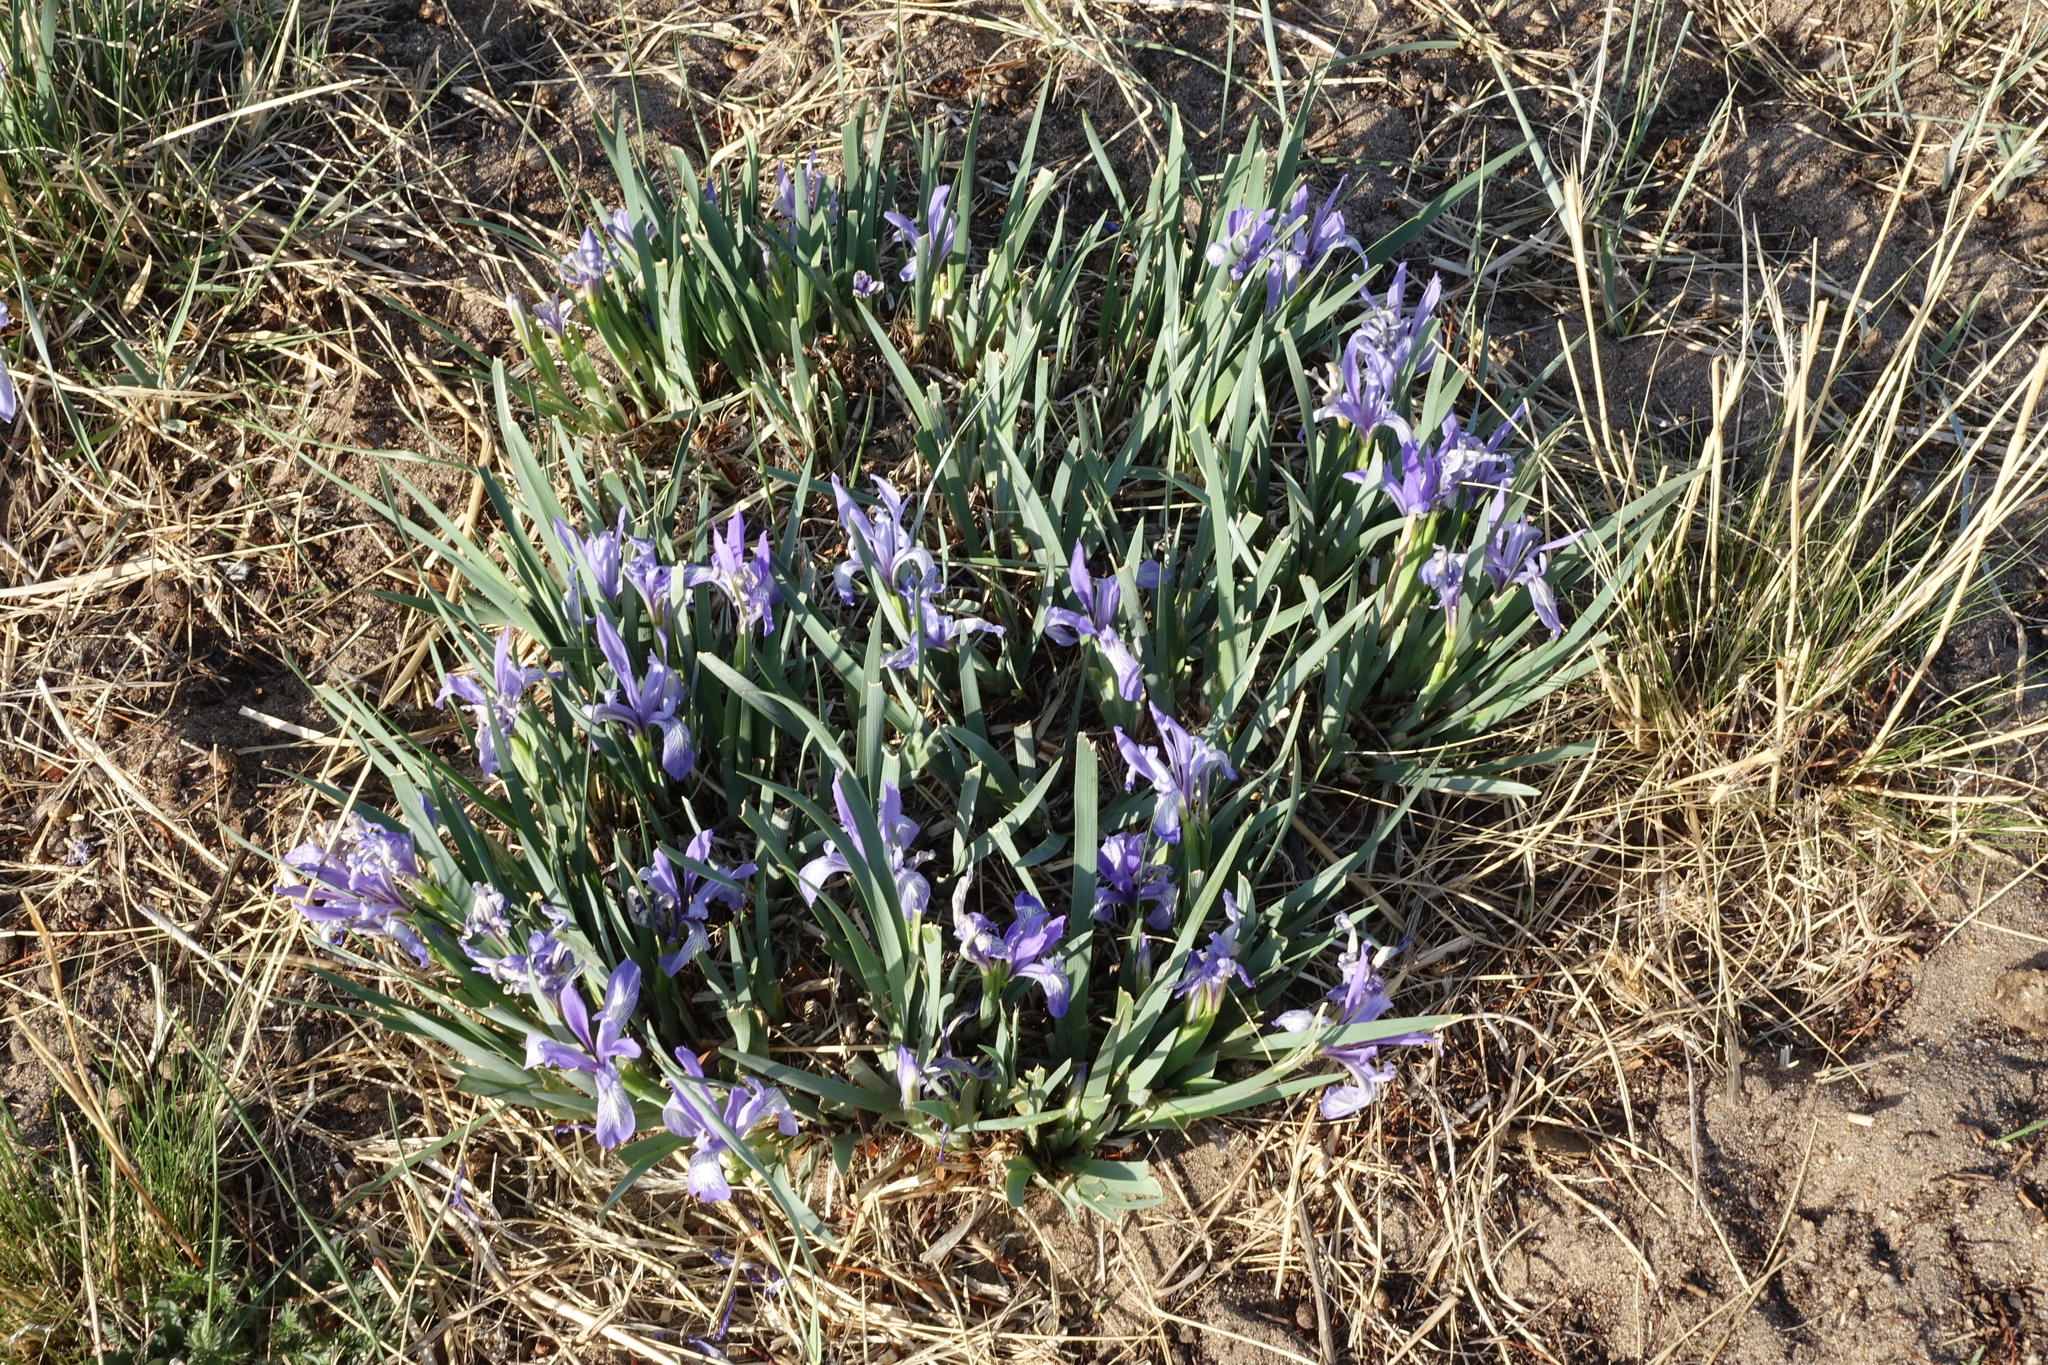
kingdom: Plantae
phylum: Tracheophyta
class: Liliopsida
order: Asparagales
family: Iridaceae
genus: Iris
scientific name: Iris lactea
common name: White-flower chinese iris
